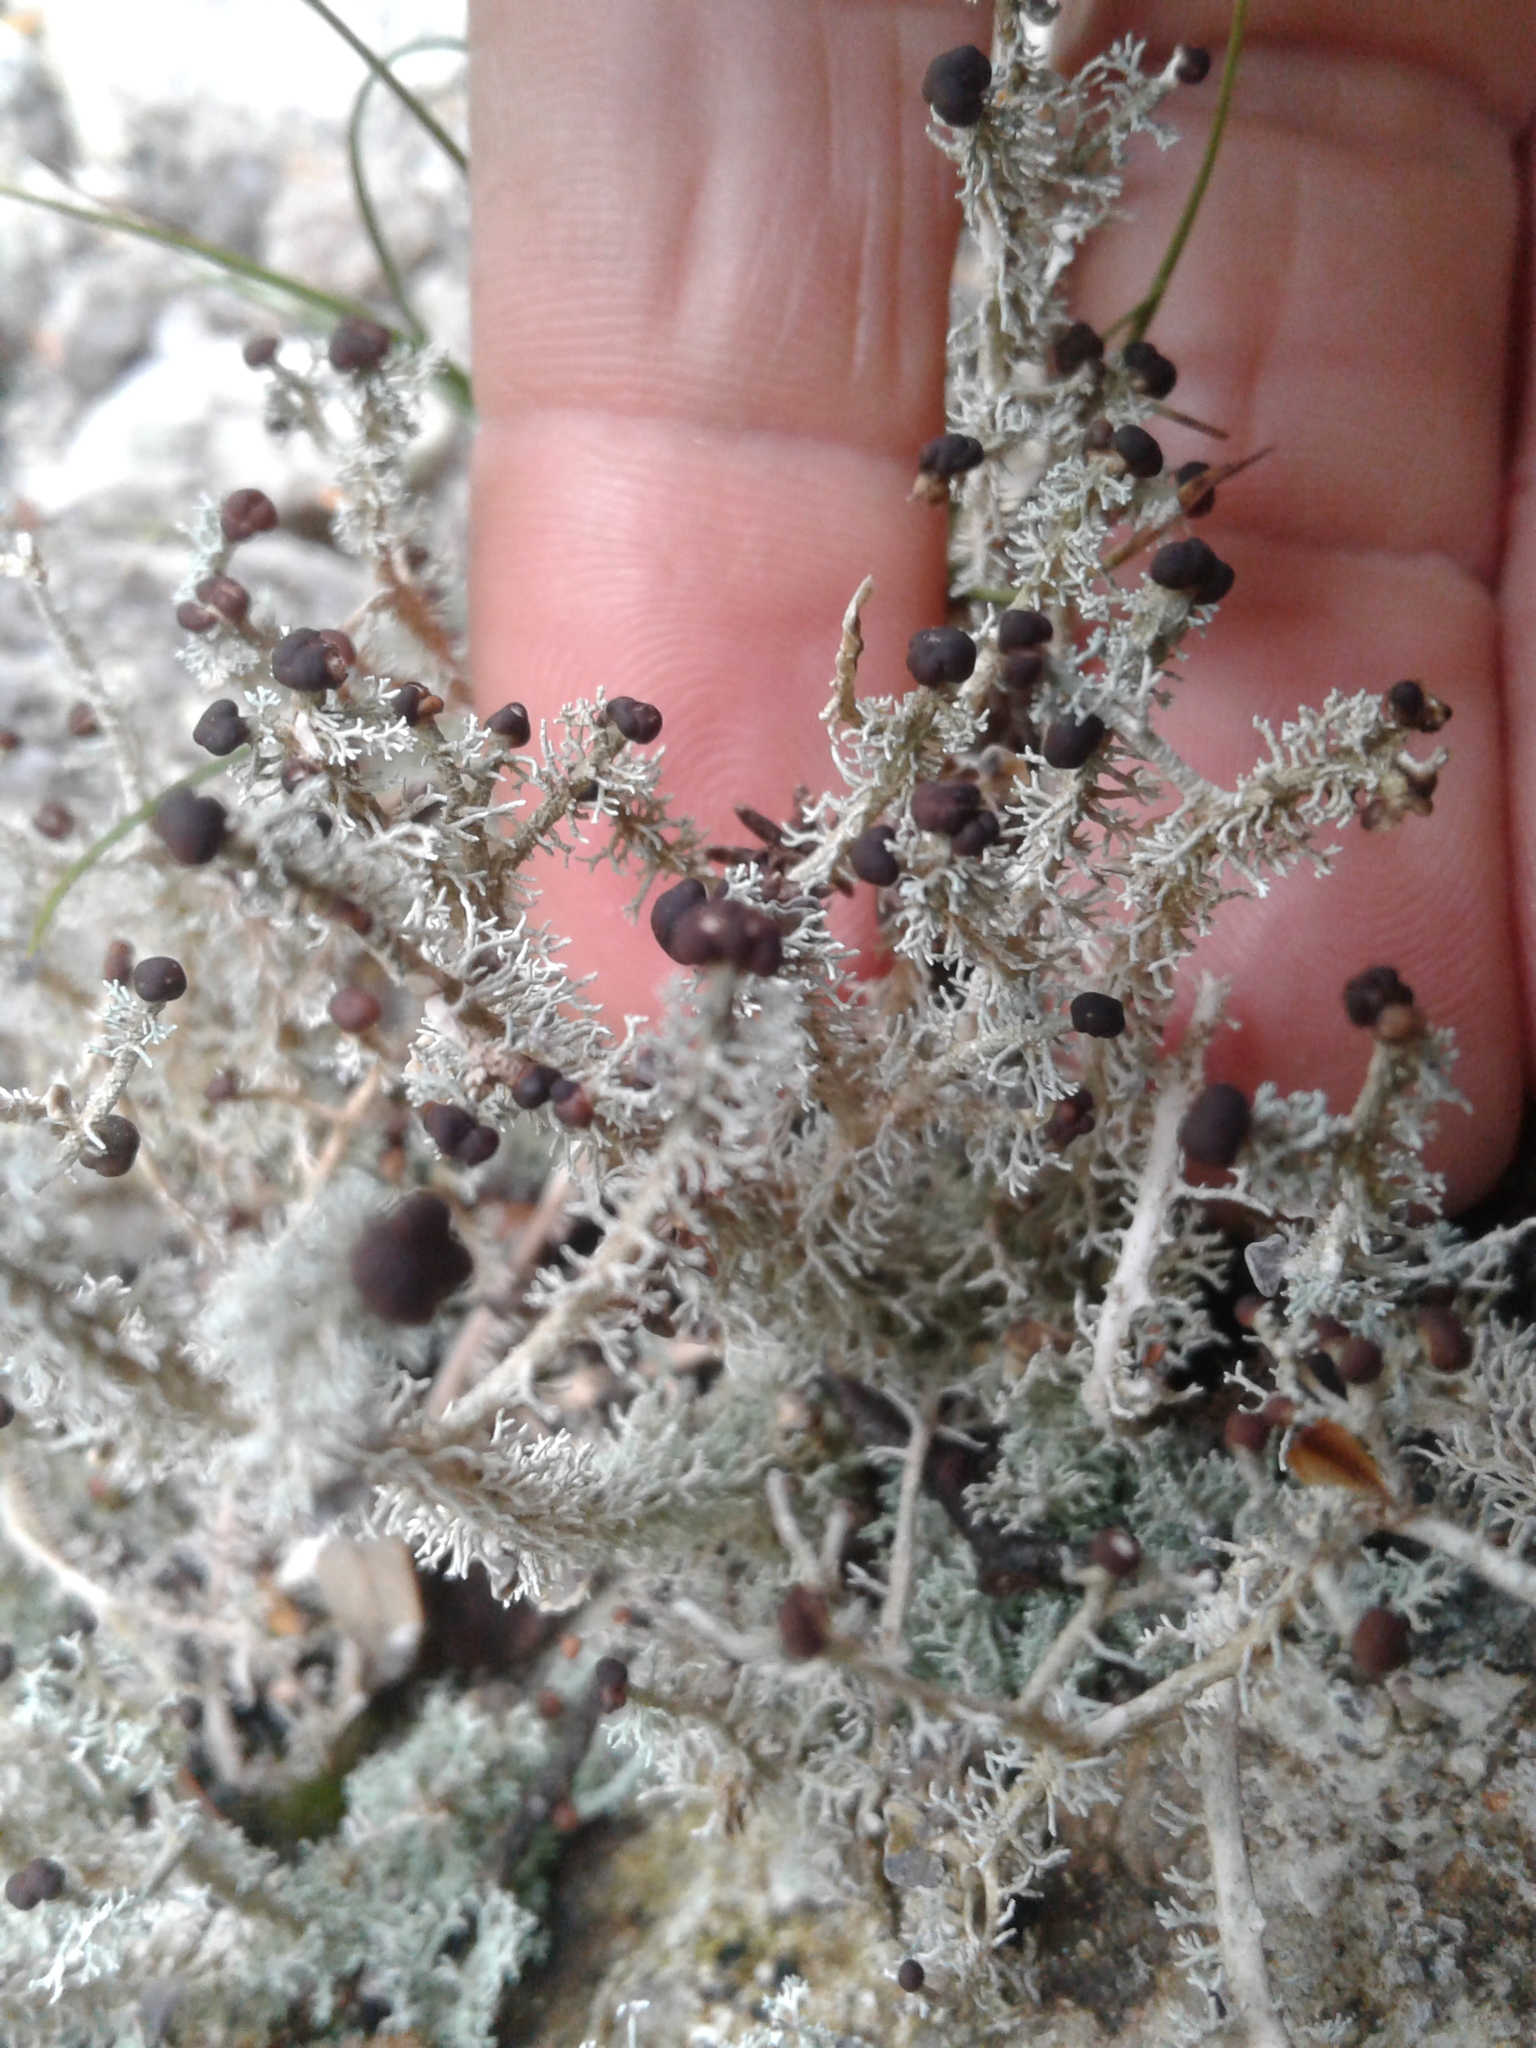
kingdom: Fungi
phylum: Ascomycota
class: Lecanoromycetes
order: Lecanorales
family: Stereocaulaceae
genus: Stereocaulon
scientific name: Stereocaulon ramulosum
